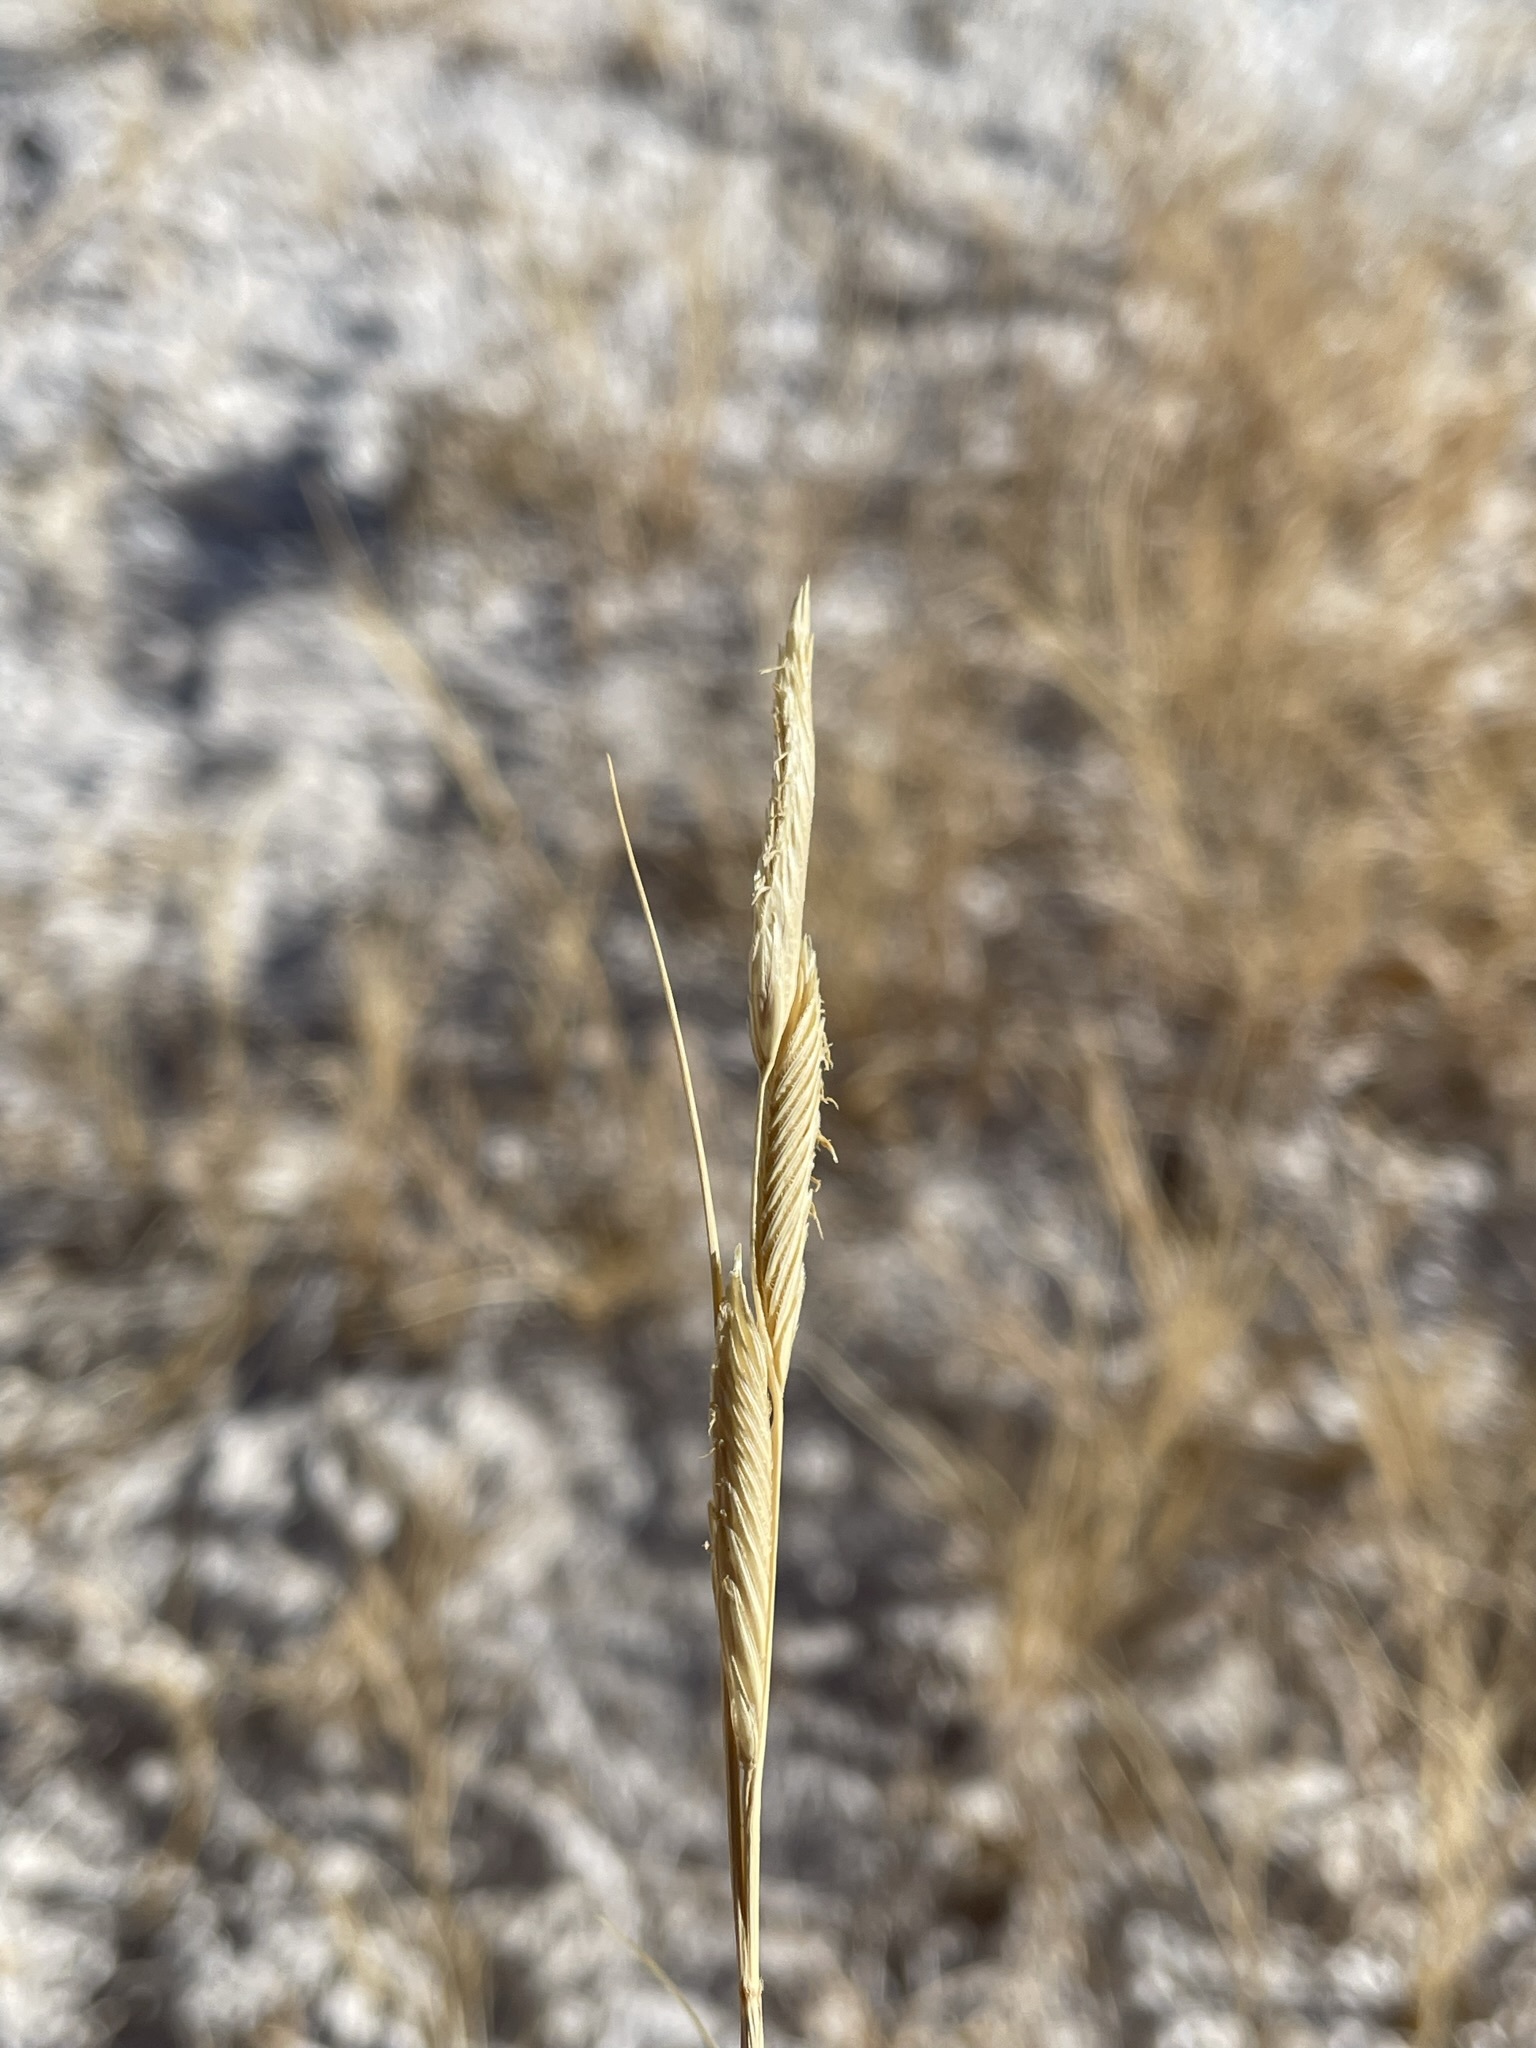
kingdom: Plantae
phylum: Tracheophyta
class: Liliopsida
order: Poales
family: Poaceae
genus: Sporobolus
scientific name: Sporobolus hookerianus
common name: Alkali cordgrass
